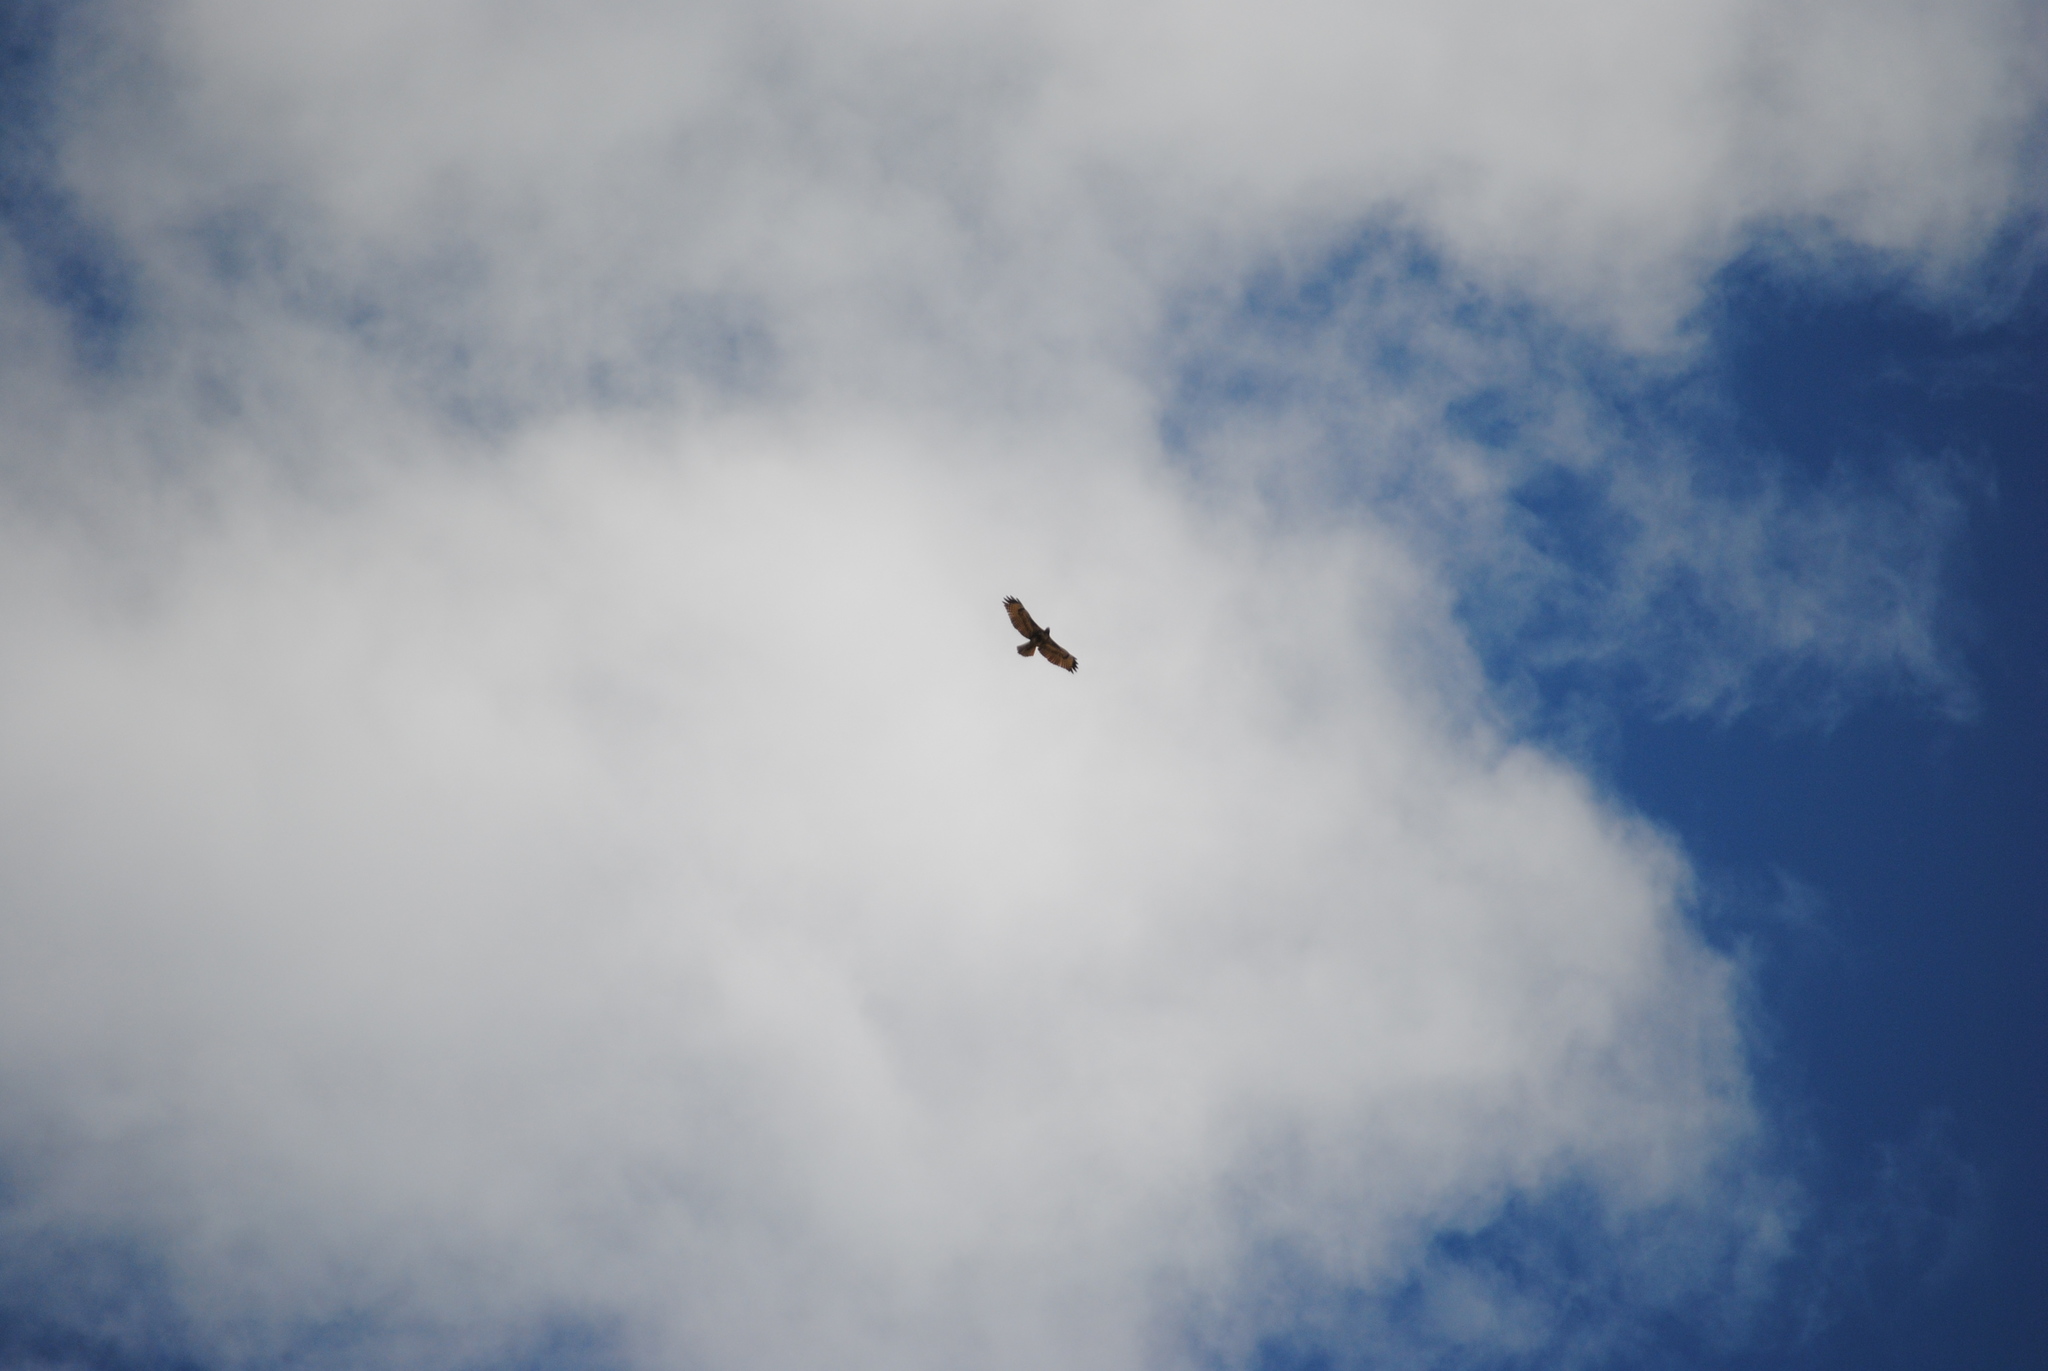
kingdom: Animalia
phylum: Chordata
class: Aves
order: Accipitriformes
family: Accipitridae
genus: Buteo
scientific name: Buteo jamaicensis
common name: Red-tailed hawk
